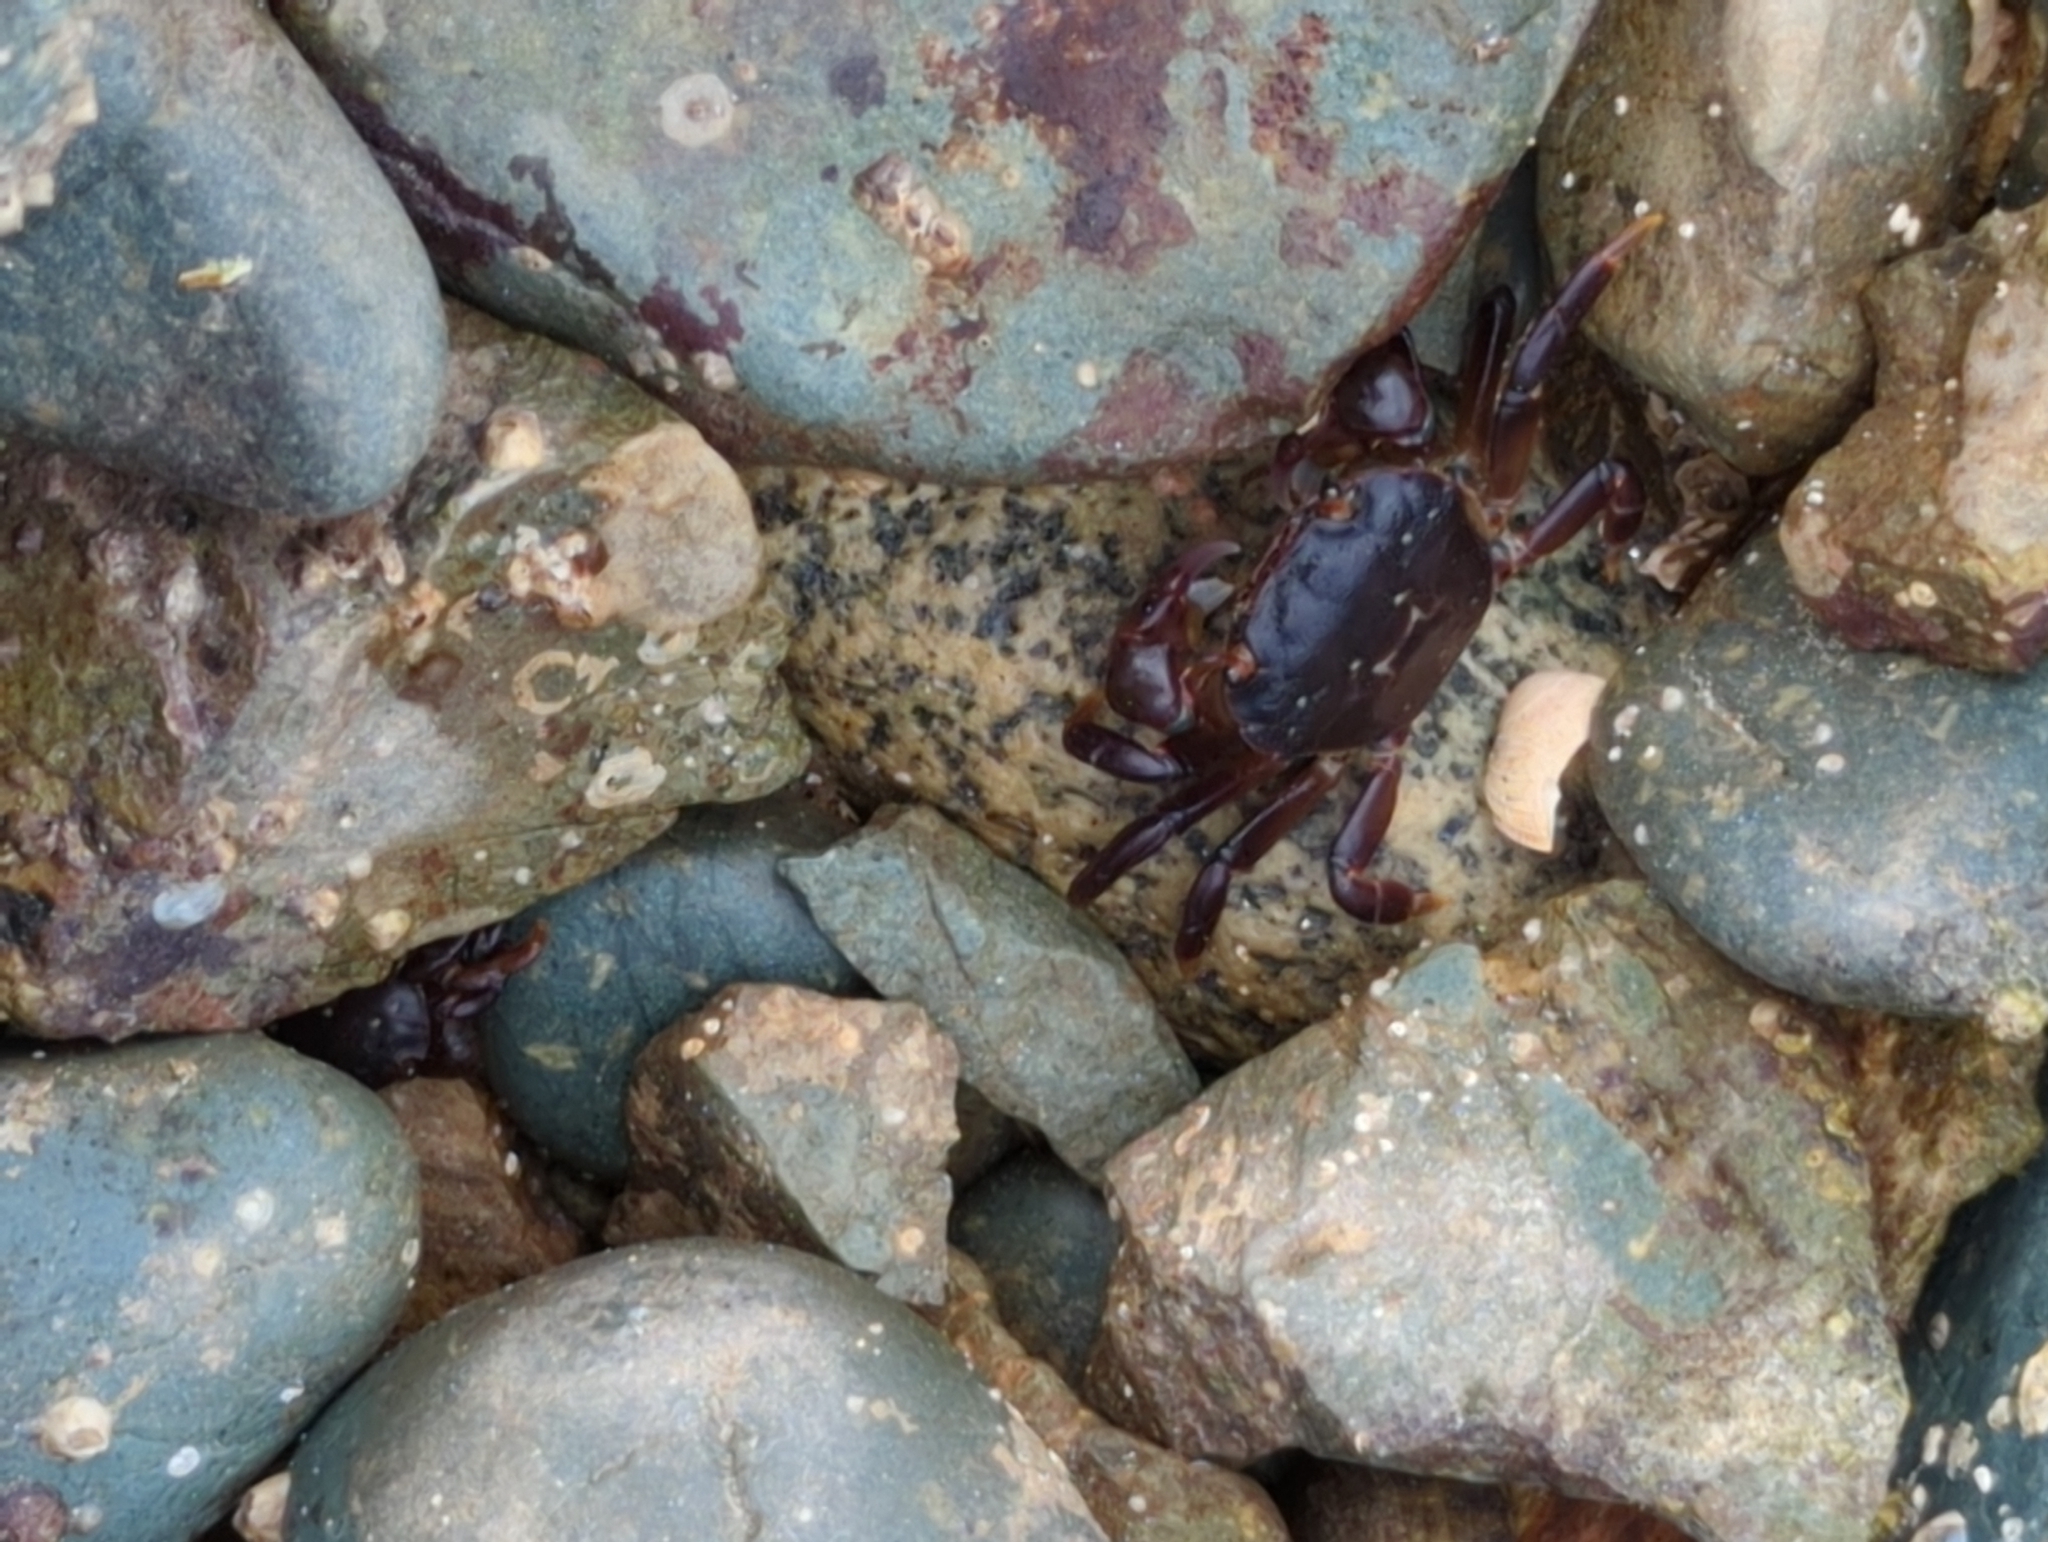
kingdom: Animalia
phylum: Arthropoda
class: Malacostraca
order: Decapoda
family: Varunidae
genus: Hemigrapsus
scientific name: Hemigrapsus nudus
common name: Purple shore crab
